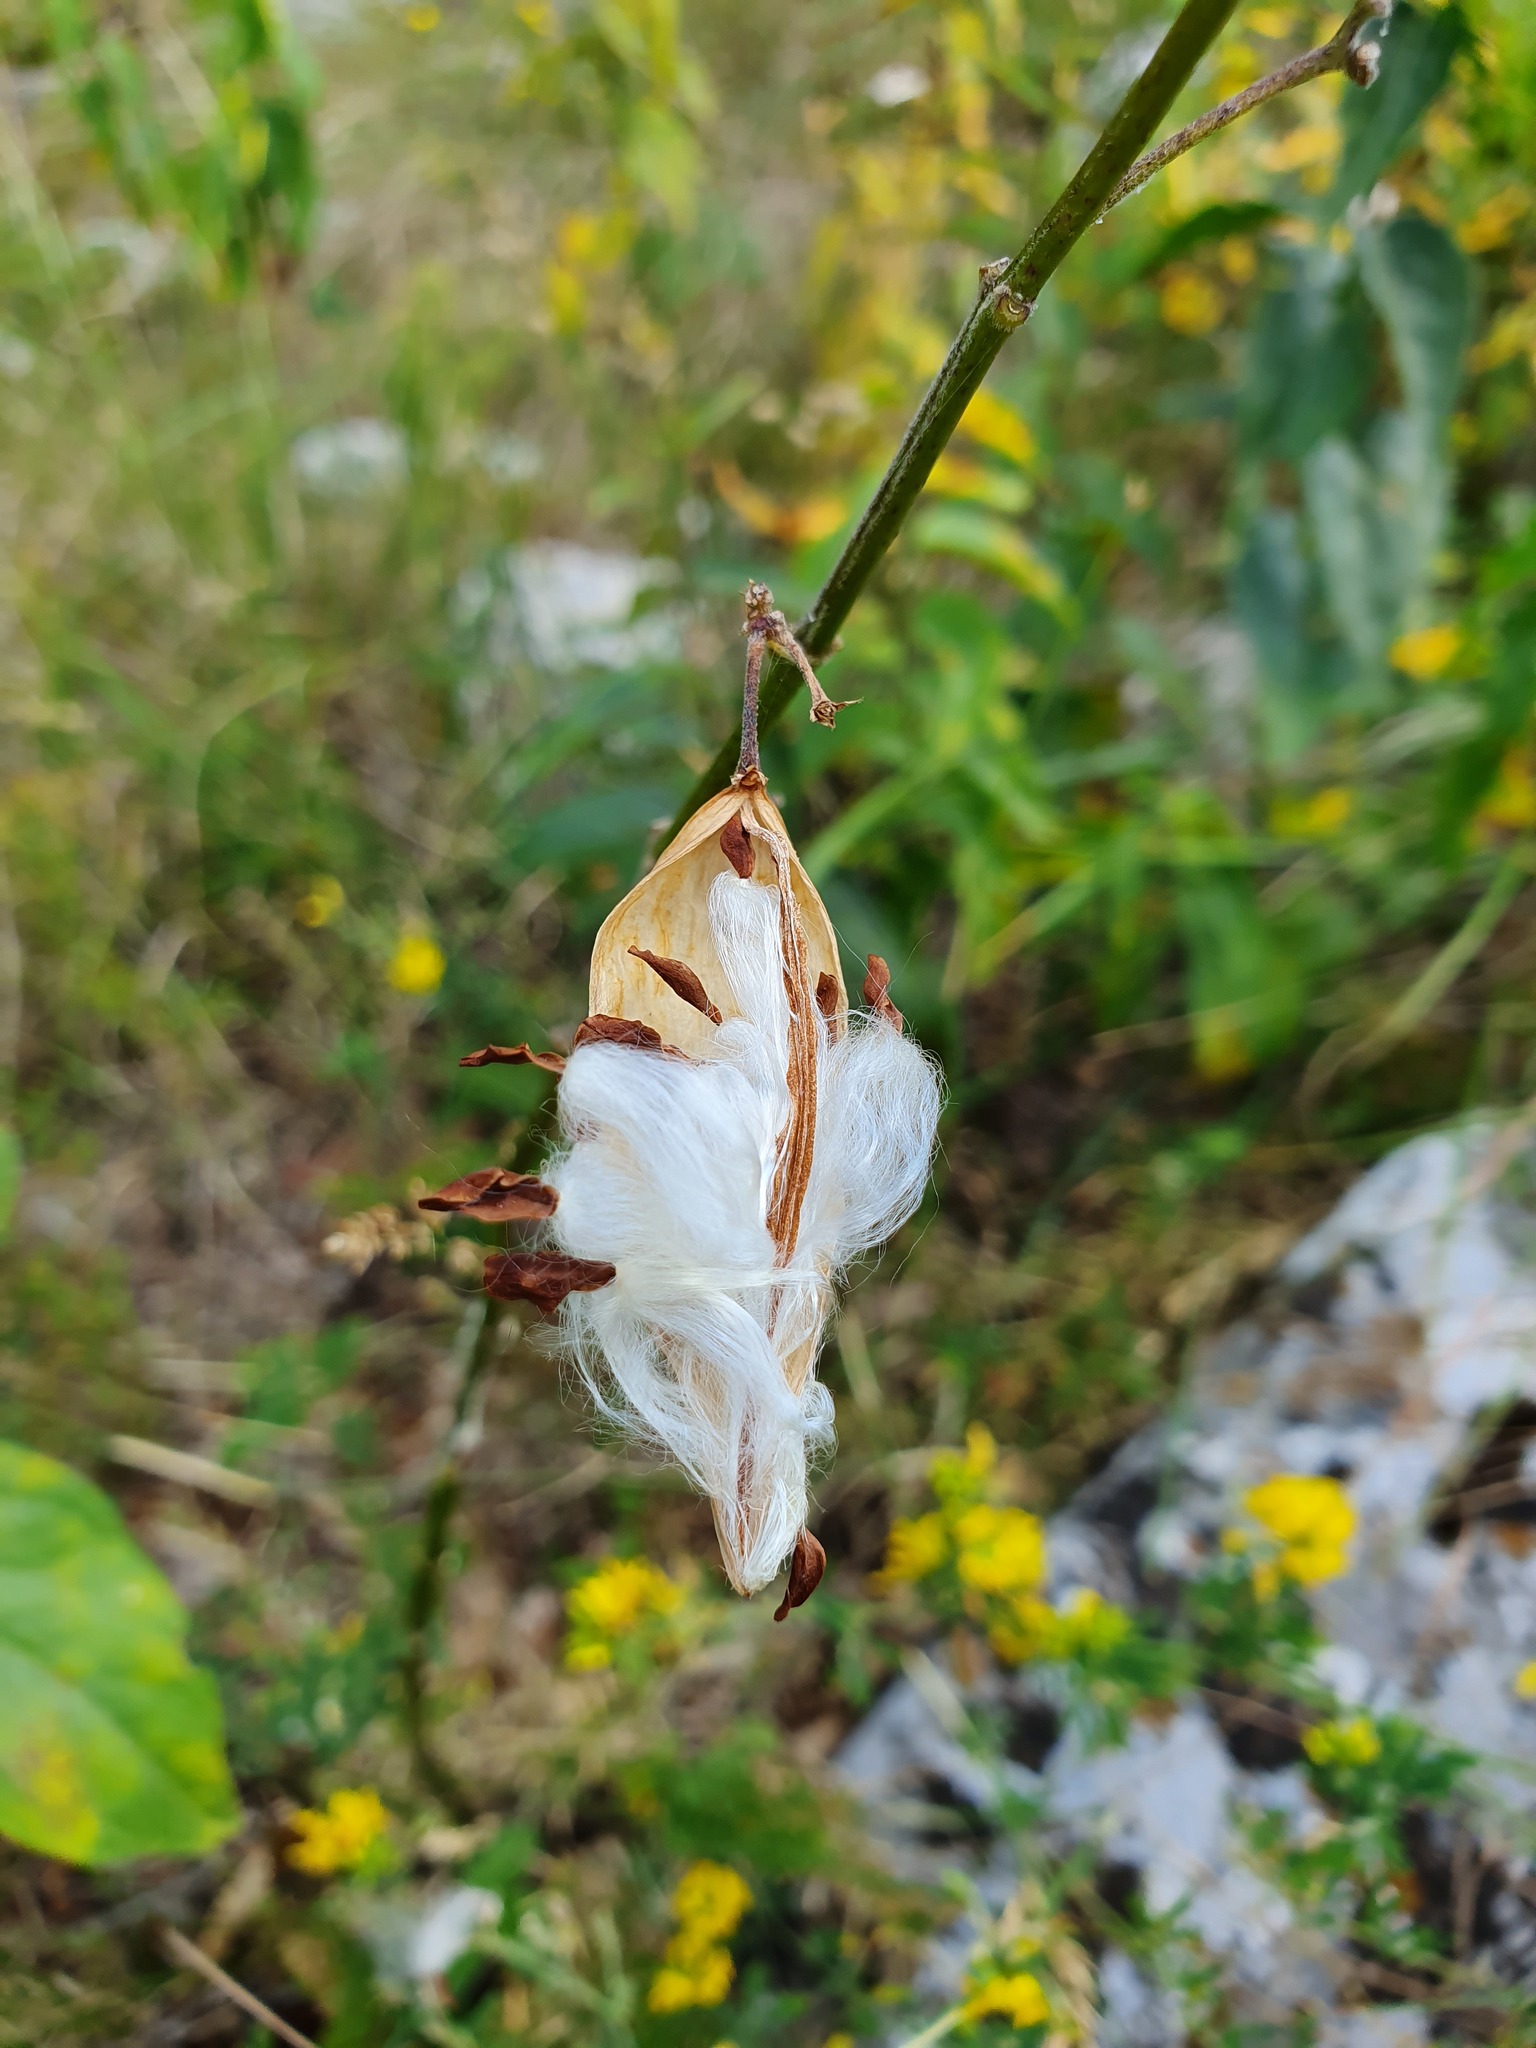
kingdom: Plantae
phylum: Tracheophyta
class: Magnoliopsida
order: Gentianales
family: Apocynaceae
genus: Vincetoxicum
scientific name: Vincetoxicum hirundinaria
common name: White swallowwort
